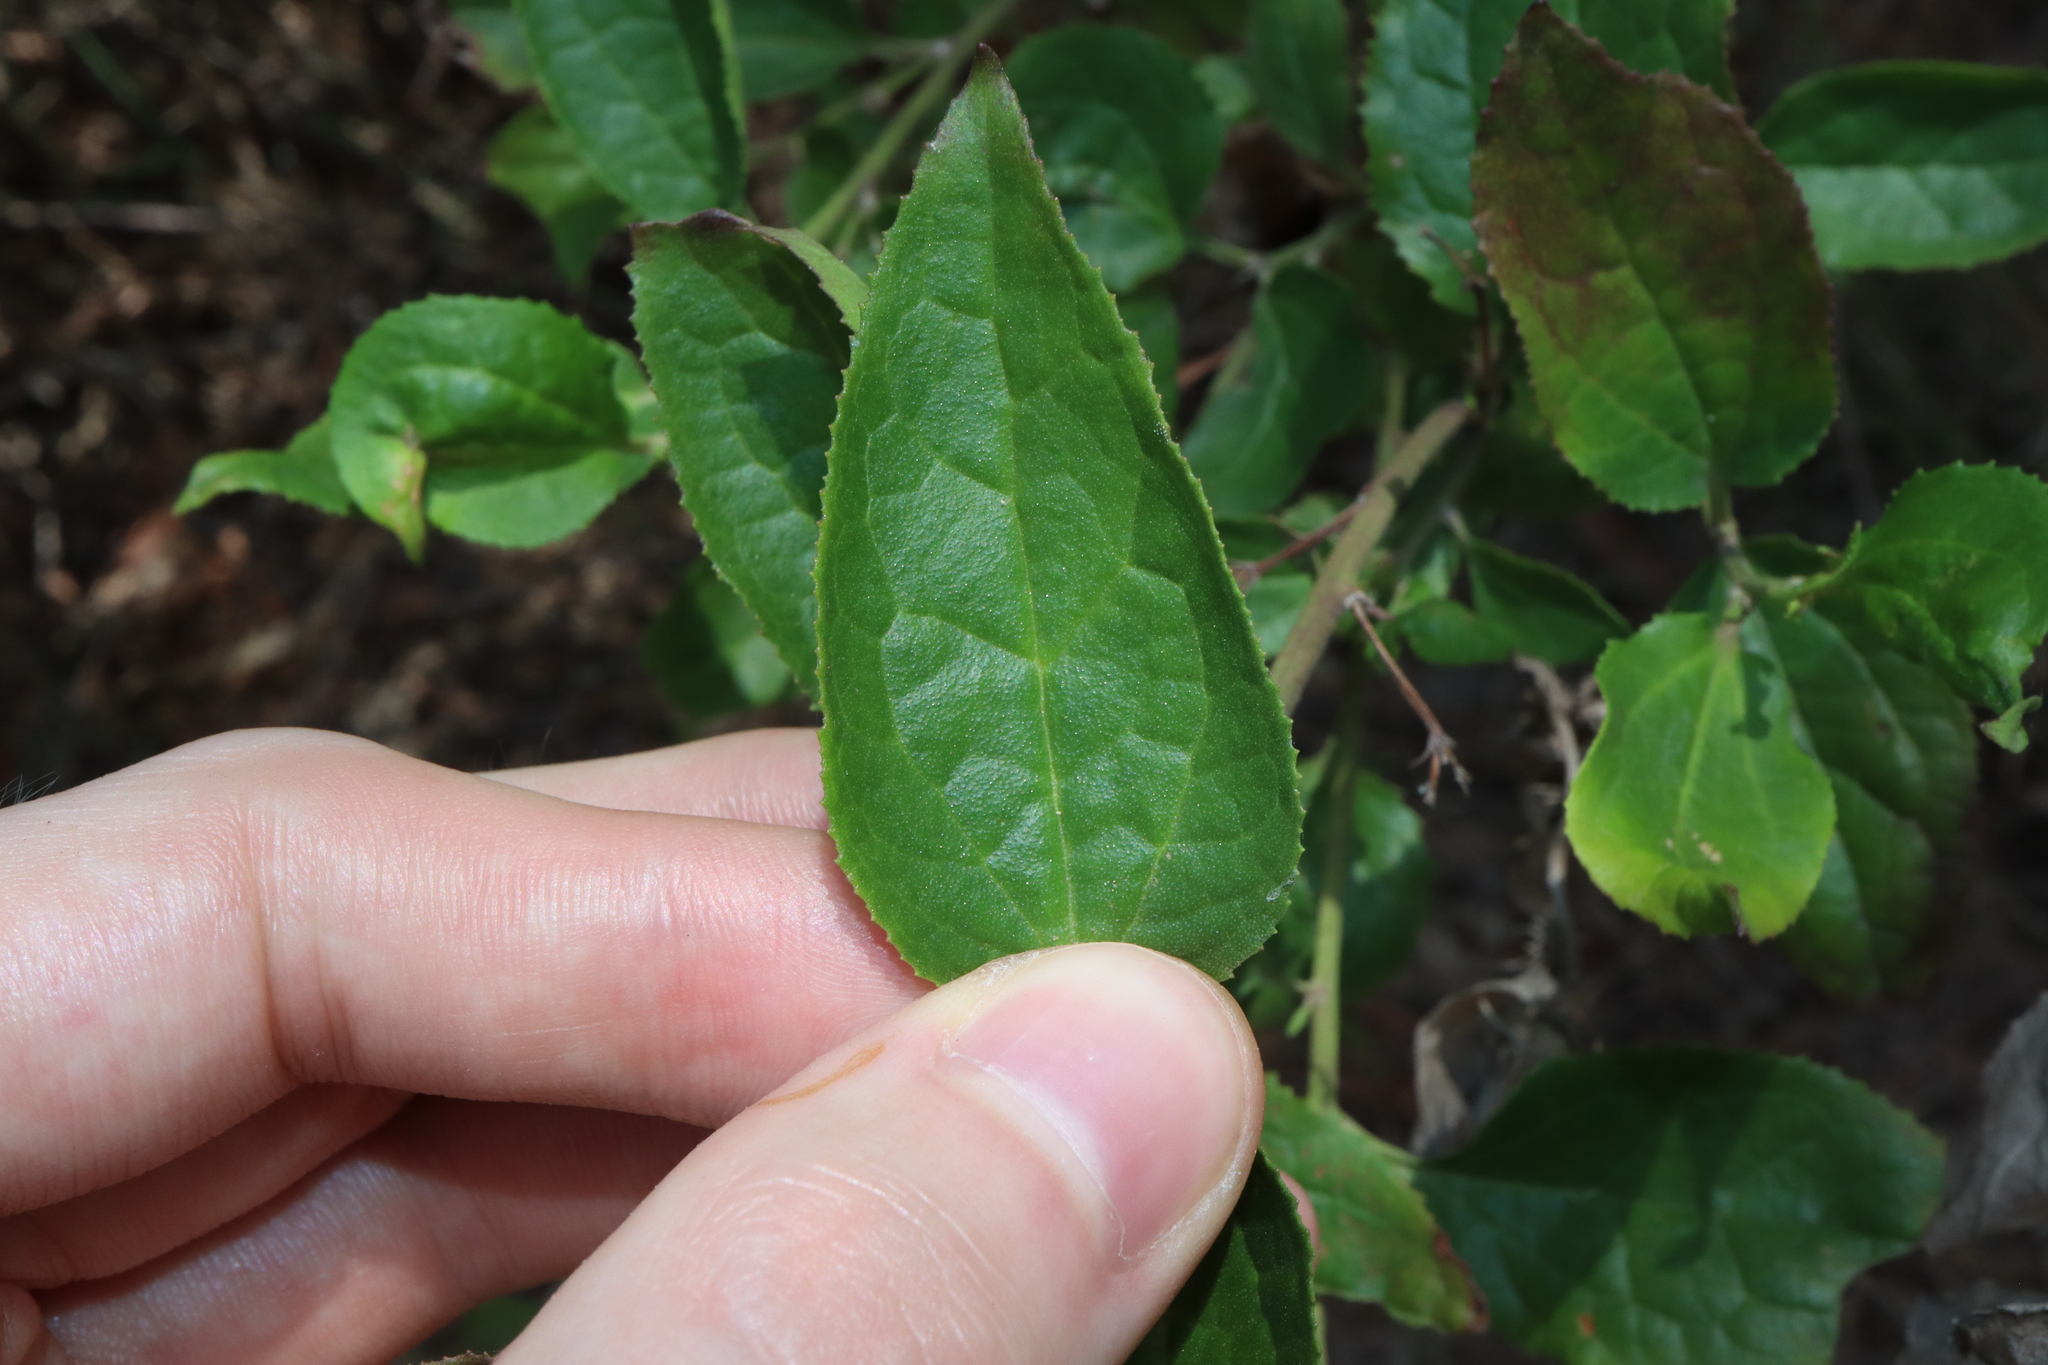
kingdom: Plantae
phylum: Tracheophyta
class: Magnoliopsida
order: Asterales
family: Goodeniaceae
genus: Goodenia
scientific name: Goodenia ovata
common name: Hop goodenia
